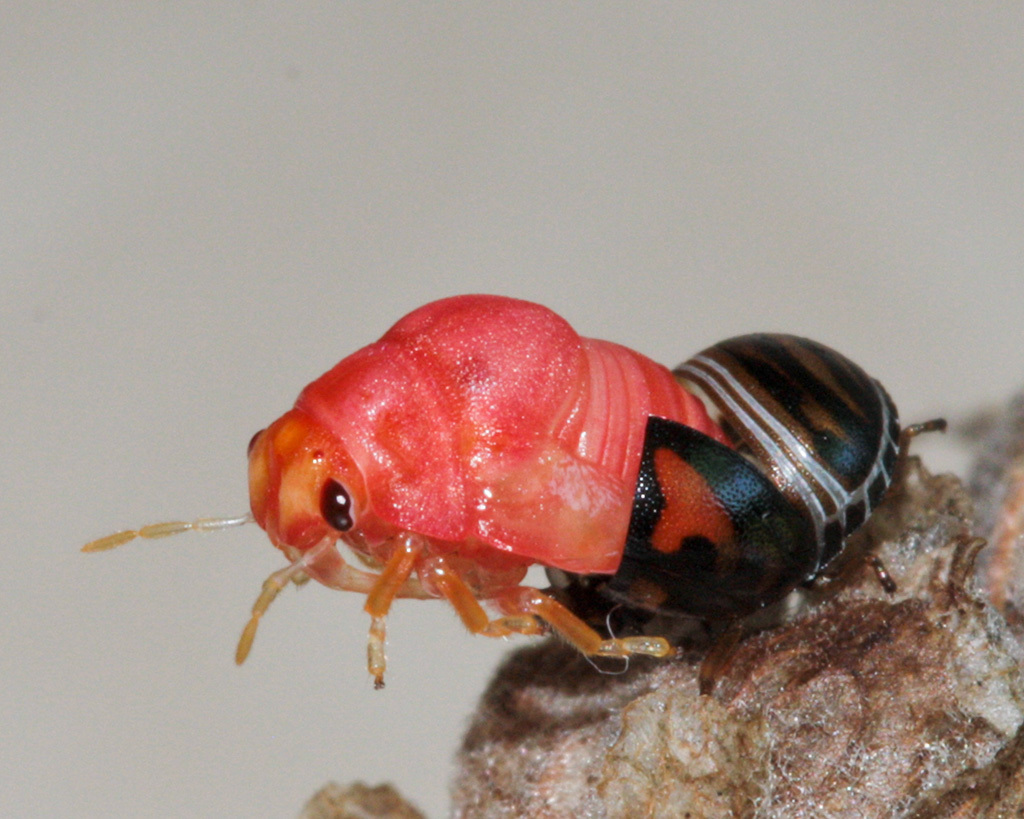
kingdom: Animalia
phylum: Arthropoda
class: Insecta
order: Hemiptera
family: Scutelleridae
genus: Sphaerocoris
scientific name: Sphaerocoris
